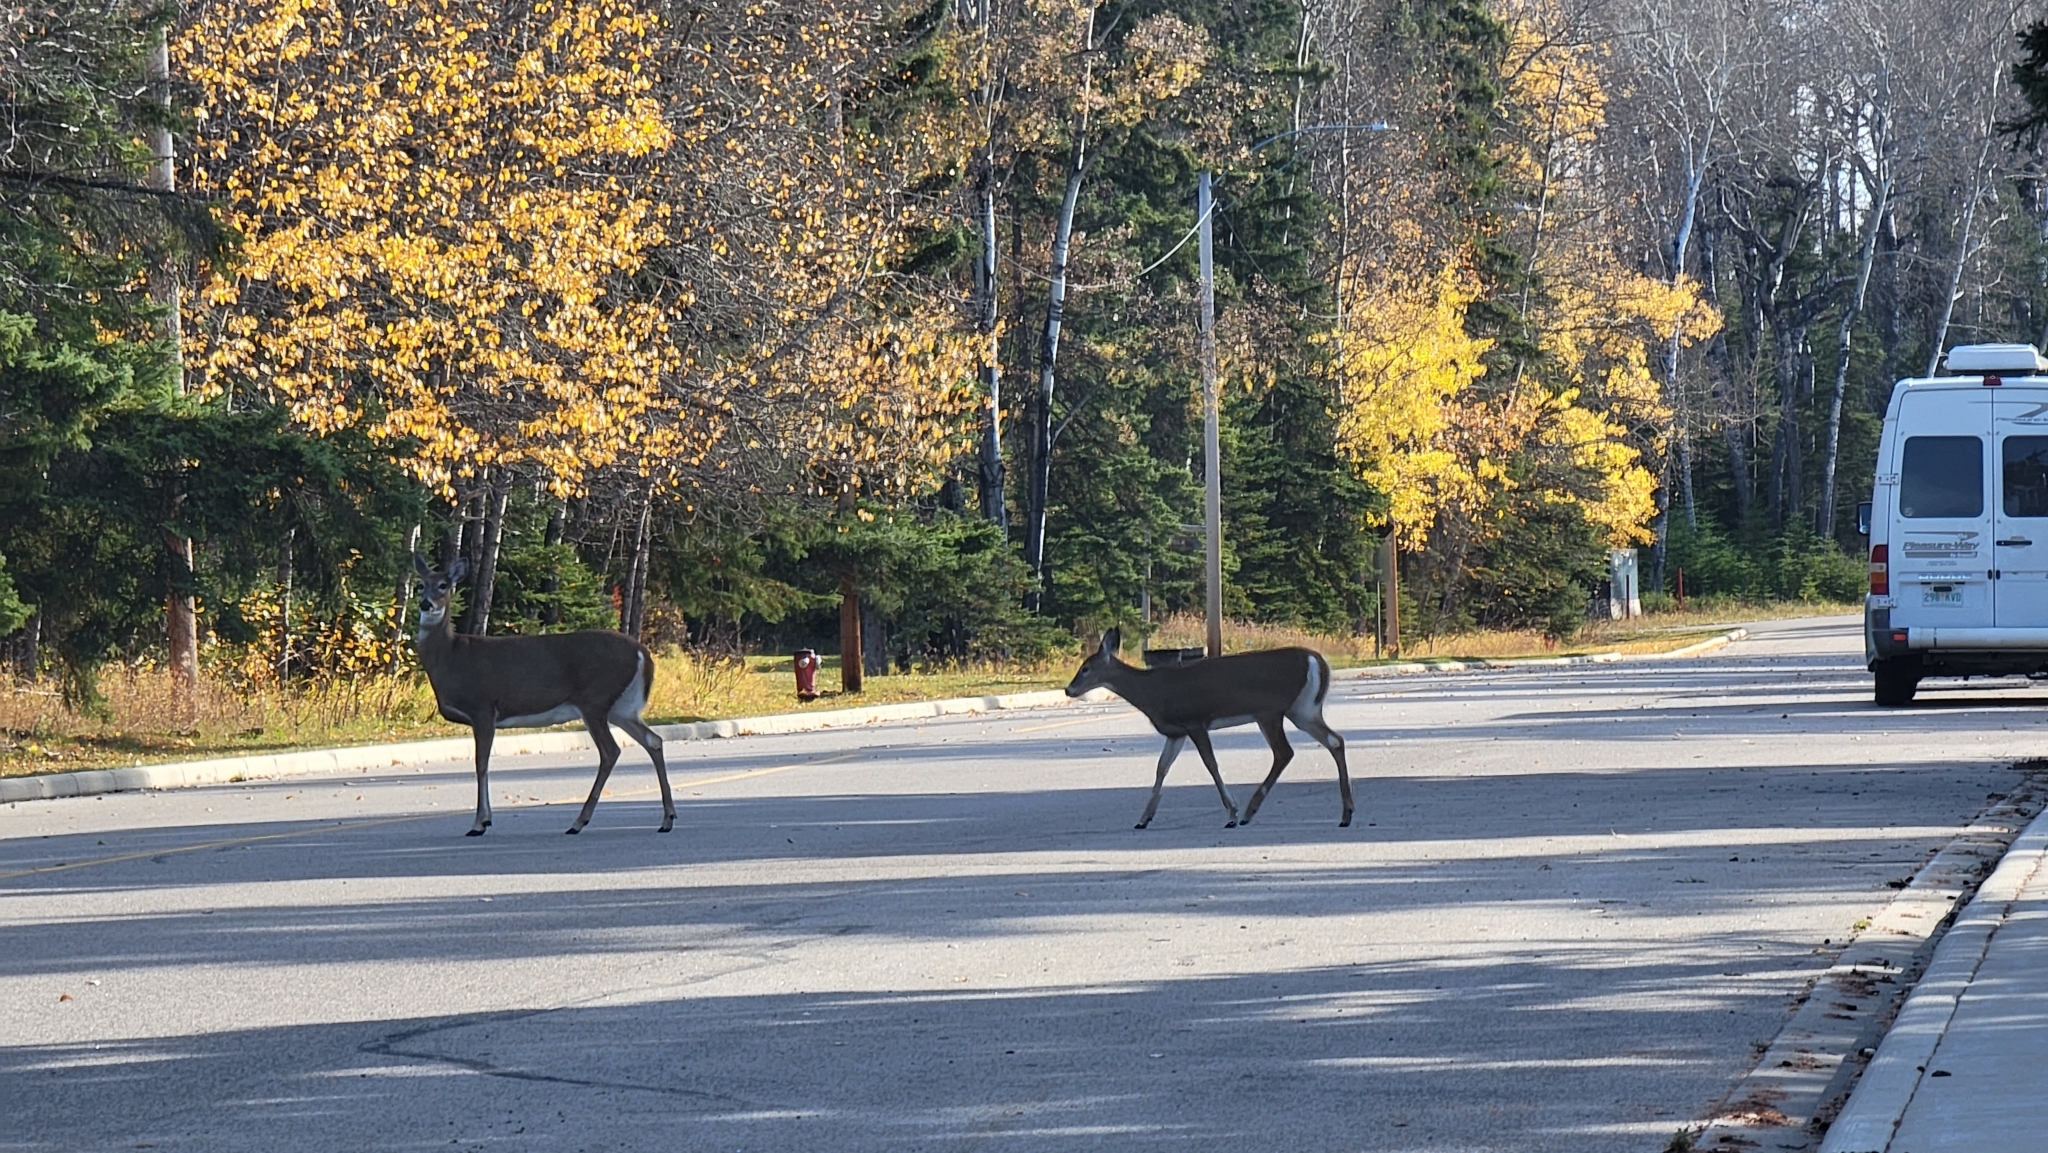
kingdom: Animalia
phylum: Chordata
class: Mammalia
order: Artiodactyla
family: Cervidae
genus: Odocoileus
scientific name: Odocoileus virginianus
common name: White-tailed deer
